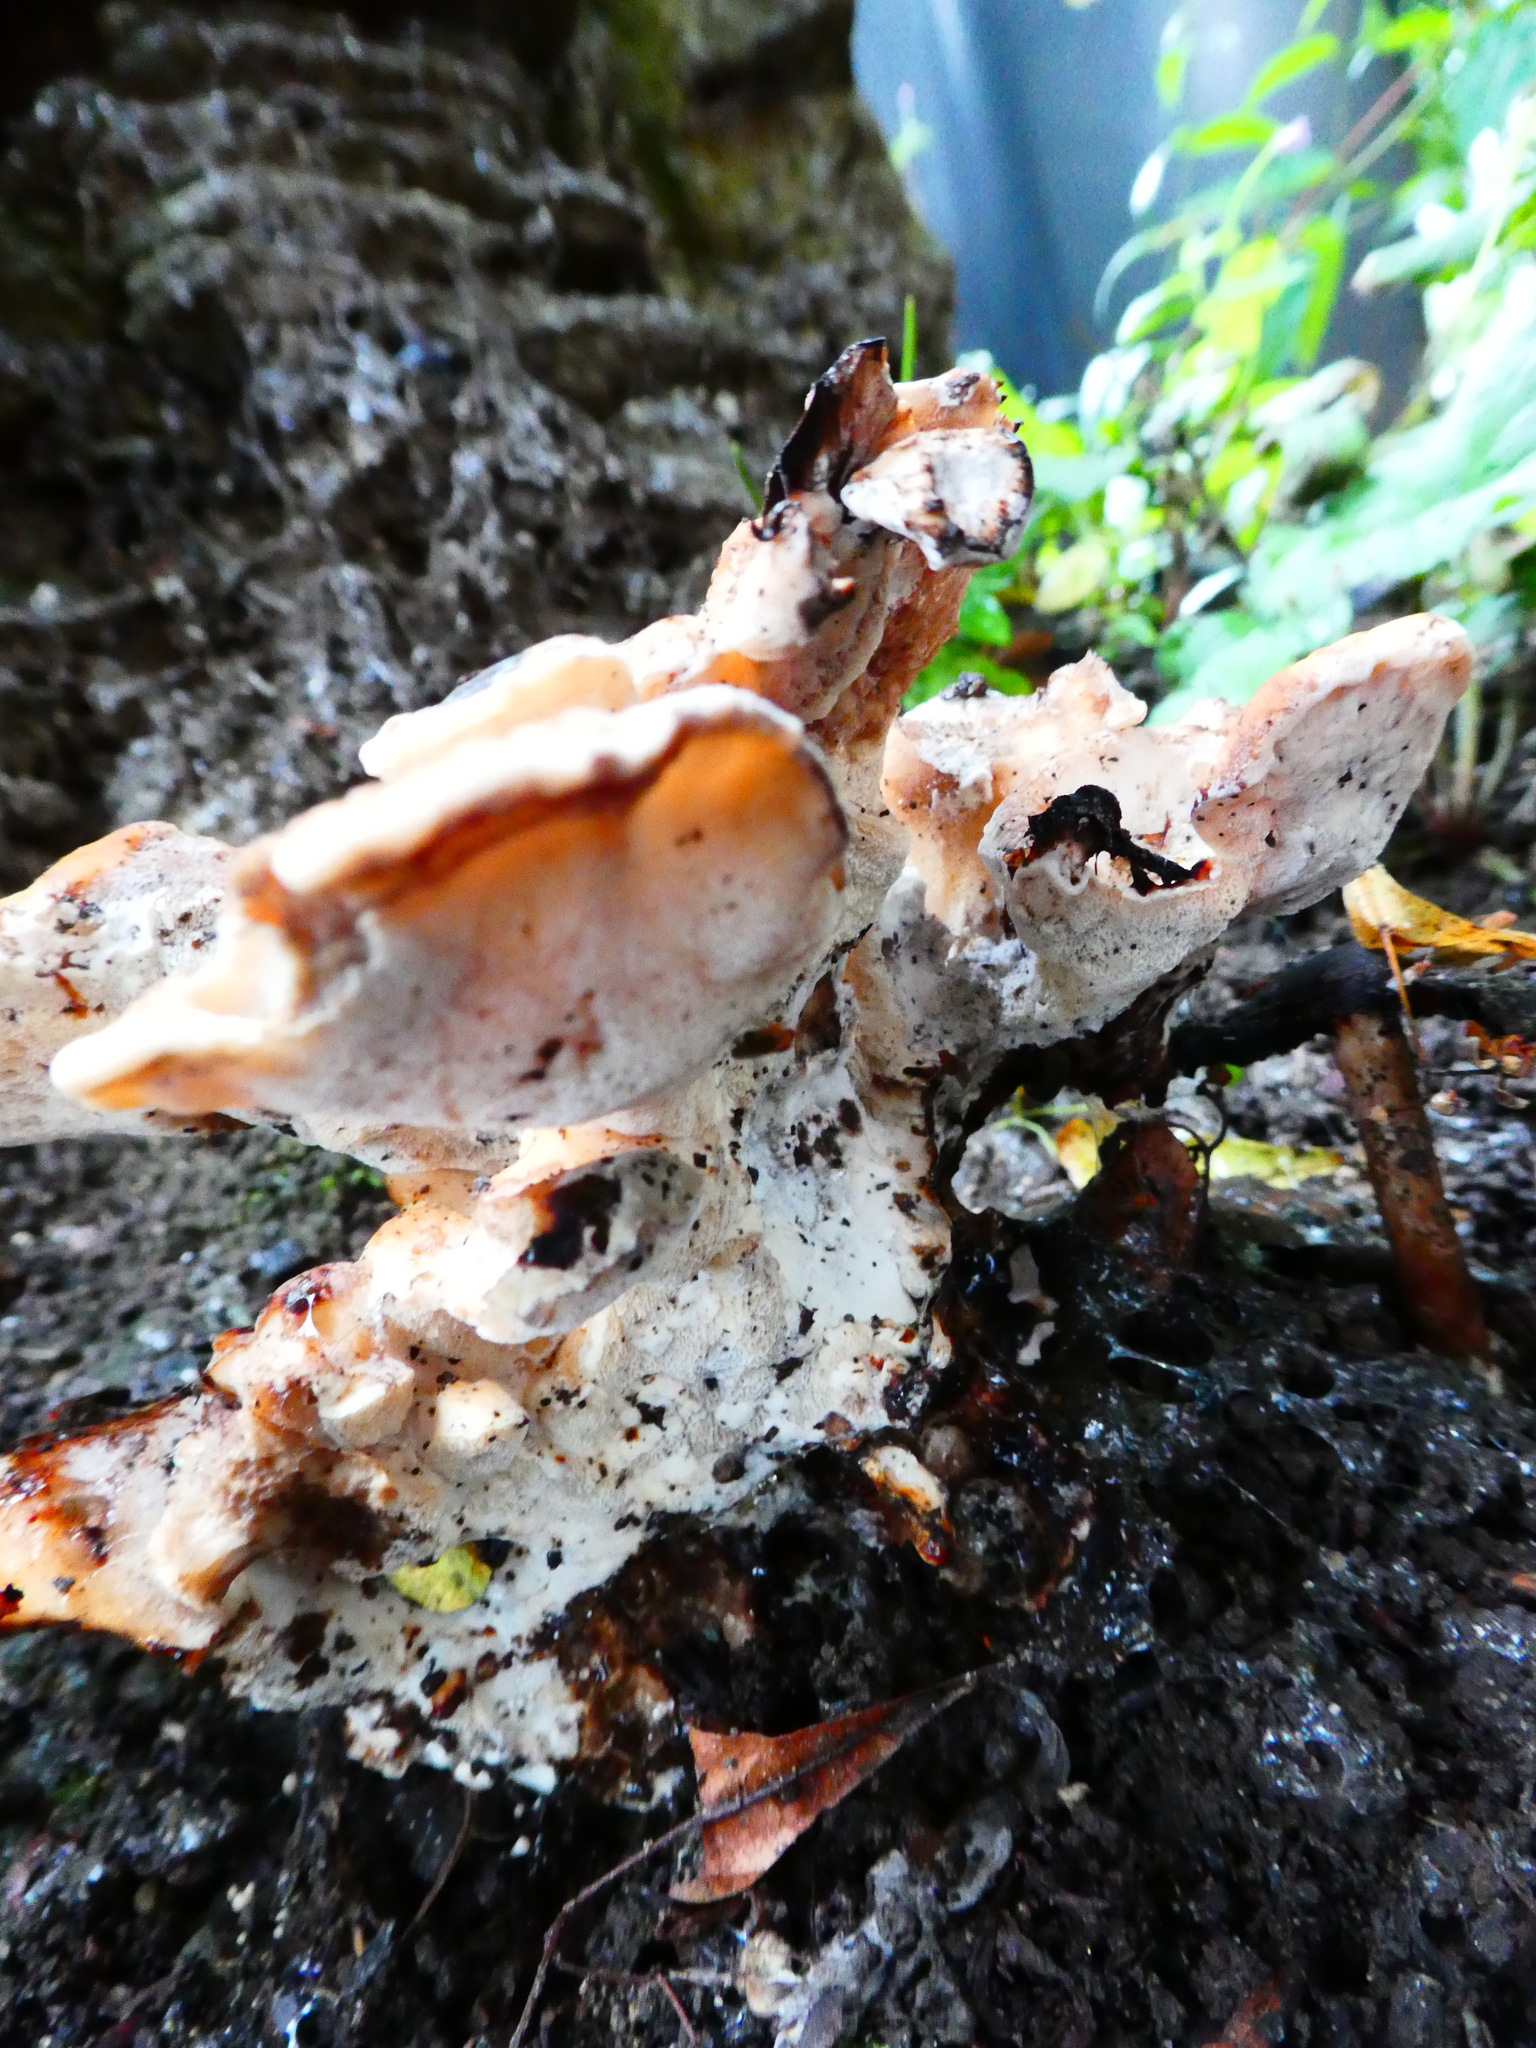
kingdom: Fungi
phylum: Basidiomycota
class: Agaricomycetes
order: Polyporales
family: Laetiporaceae
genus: Laetiporus
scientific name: Laetiporus sulphureus
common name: Chicken of the woods
